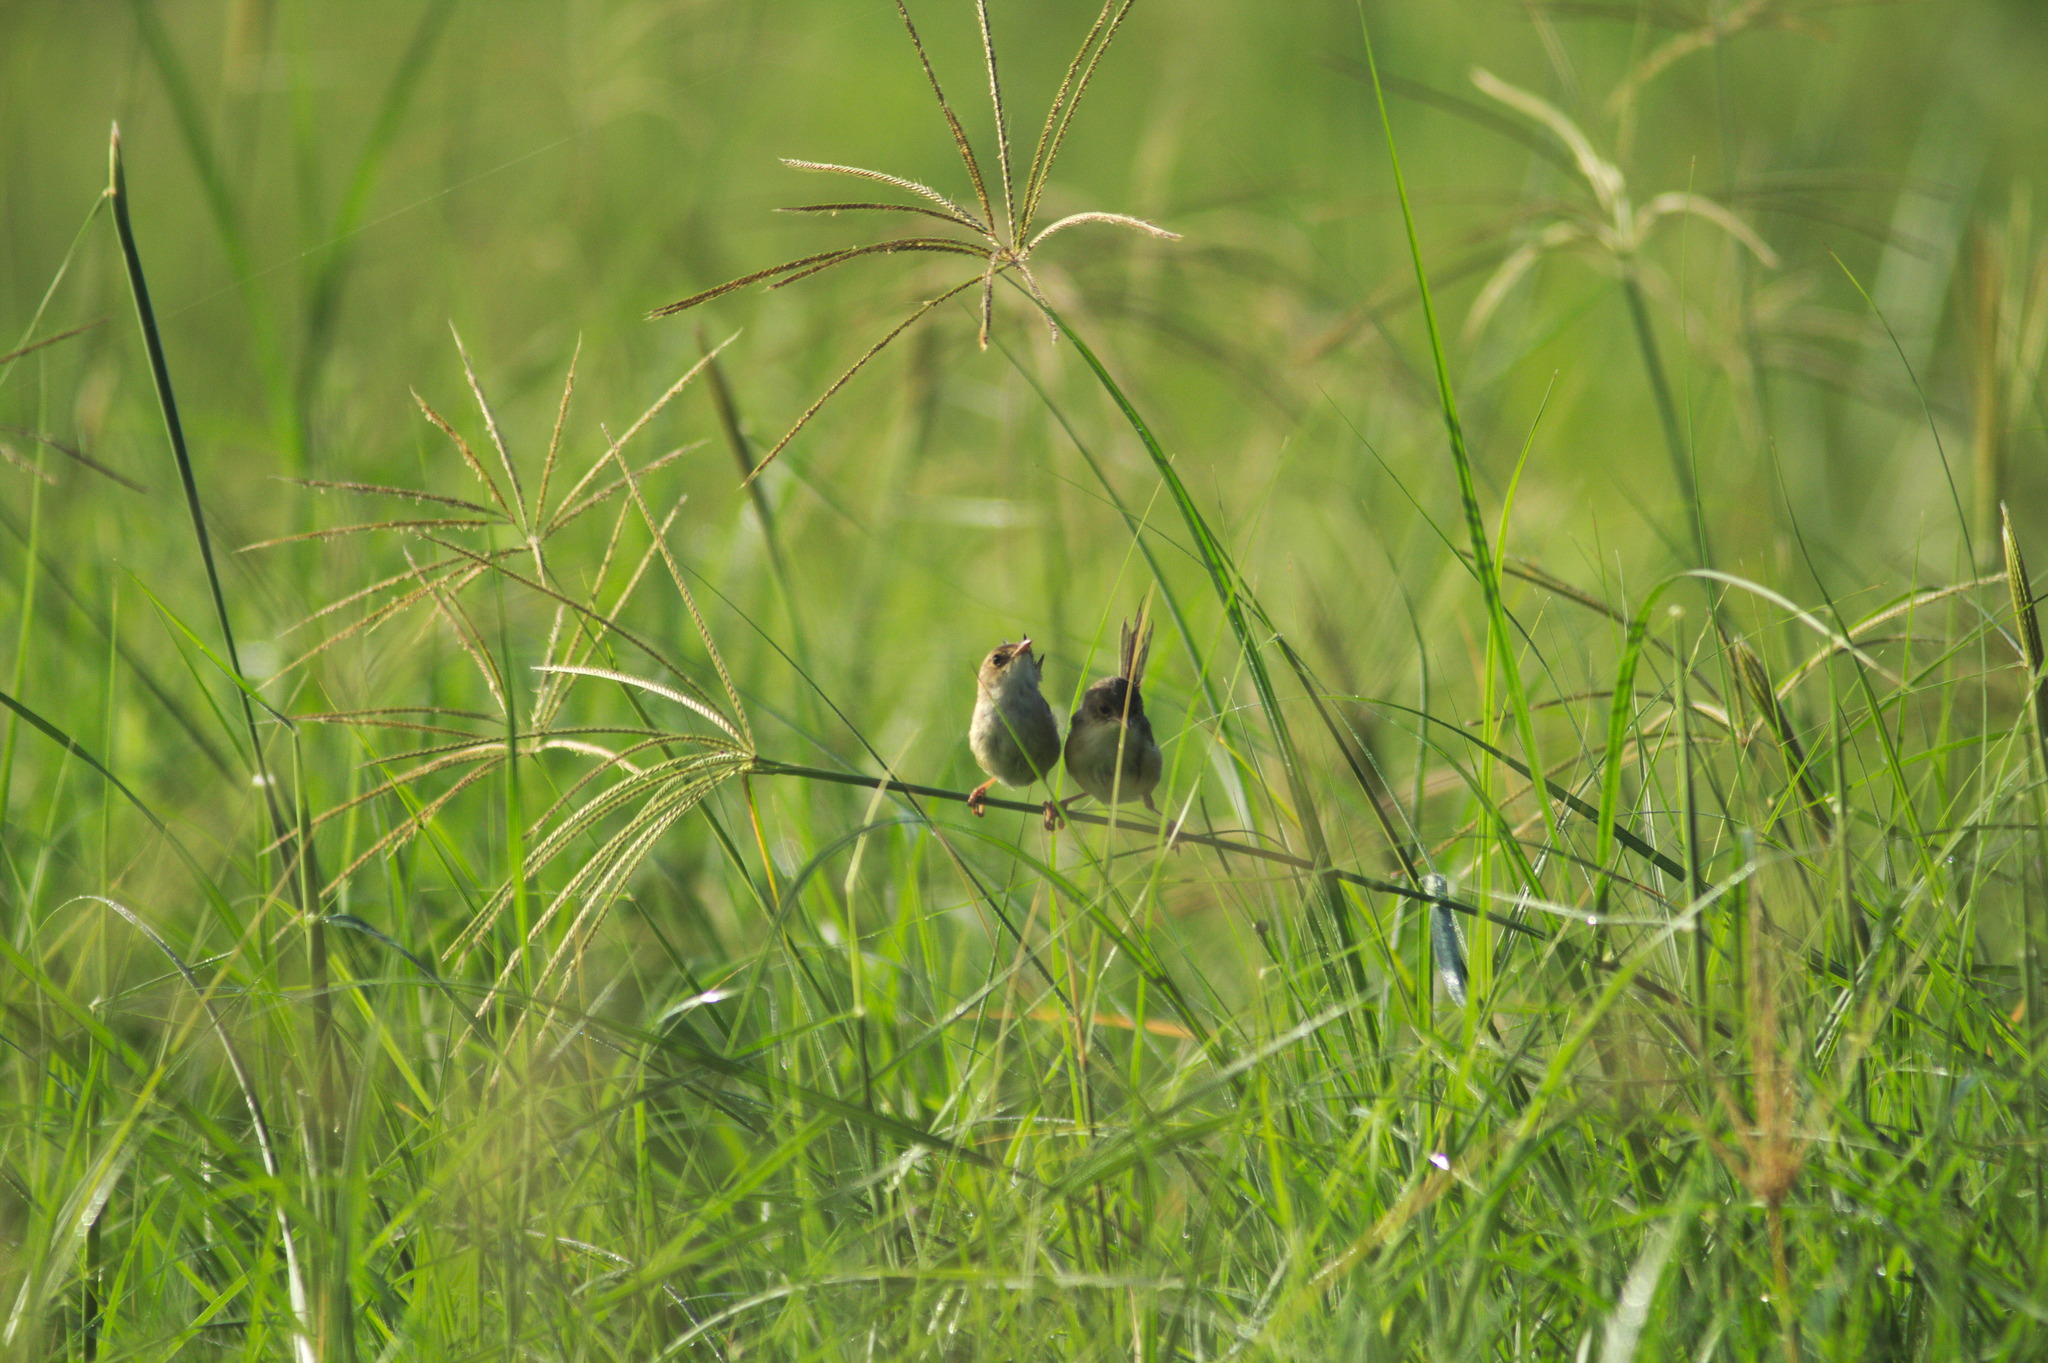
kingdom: Animalia
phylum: Chordata
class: Aves
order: Passeriformes
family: Maluridae
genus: Malurus
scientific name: Malurus melanocephalus
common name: Red-backed fairywren
